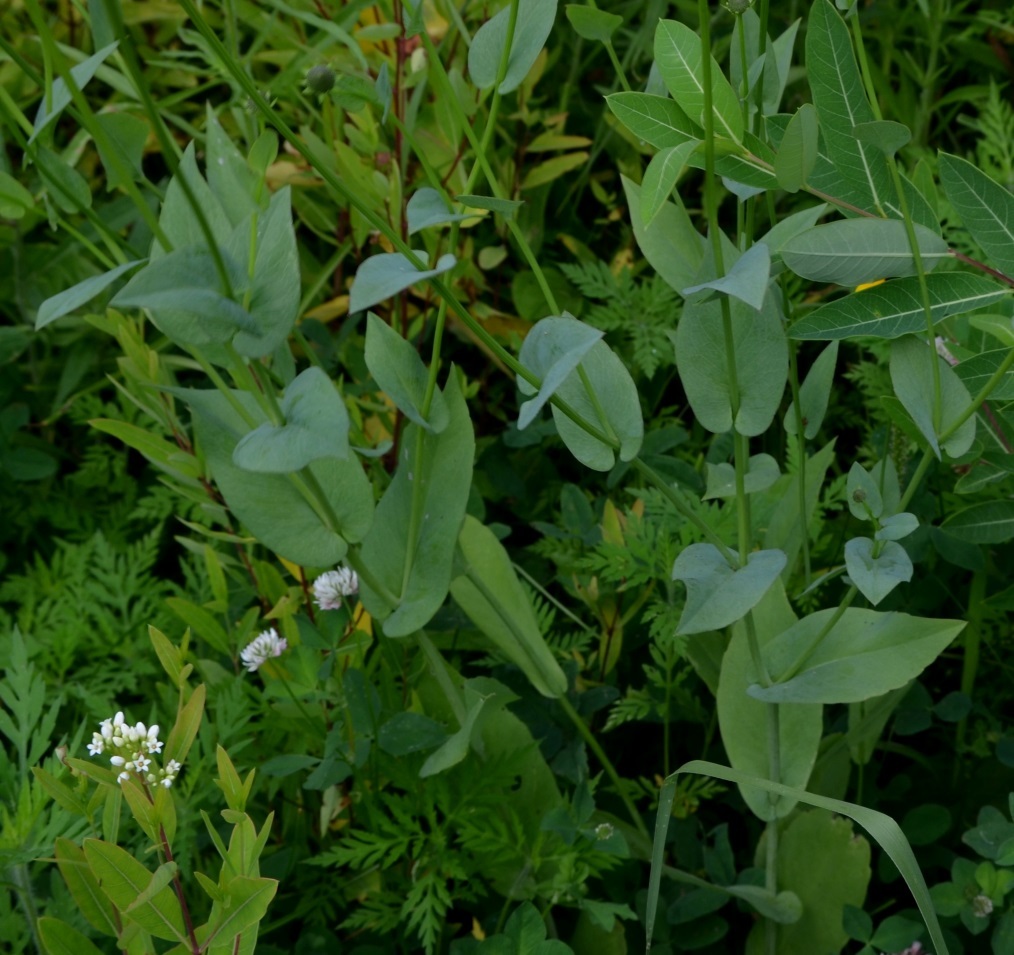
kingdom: Plantae
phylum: Tracheophyta
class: Magnoliopsida
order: Asterales
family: Asteraceae
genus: Rudbeckia
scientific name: Rudbeckia amplexicaulis
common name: Clasping-leaf coneflower
